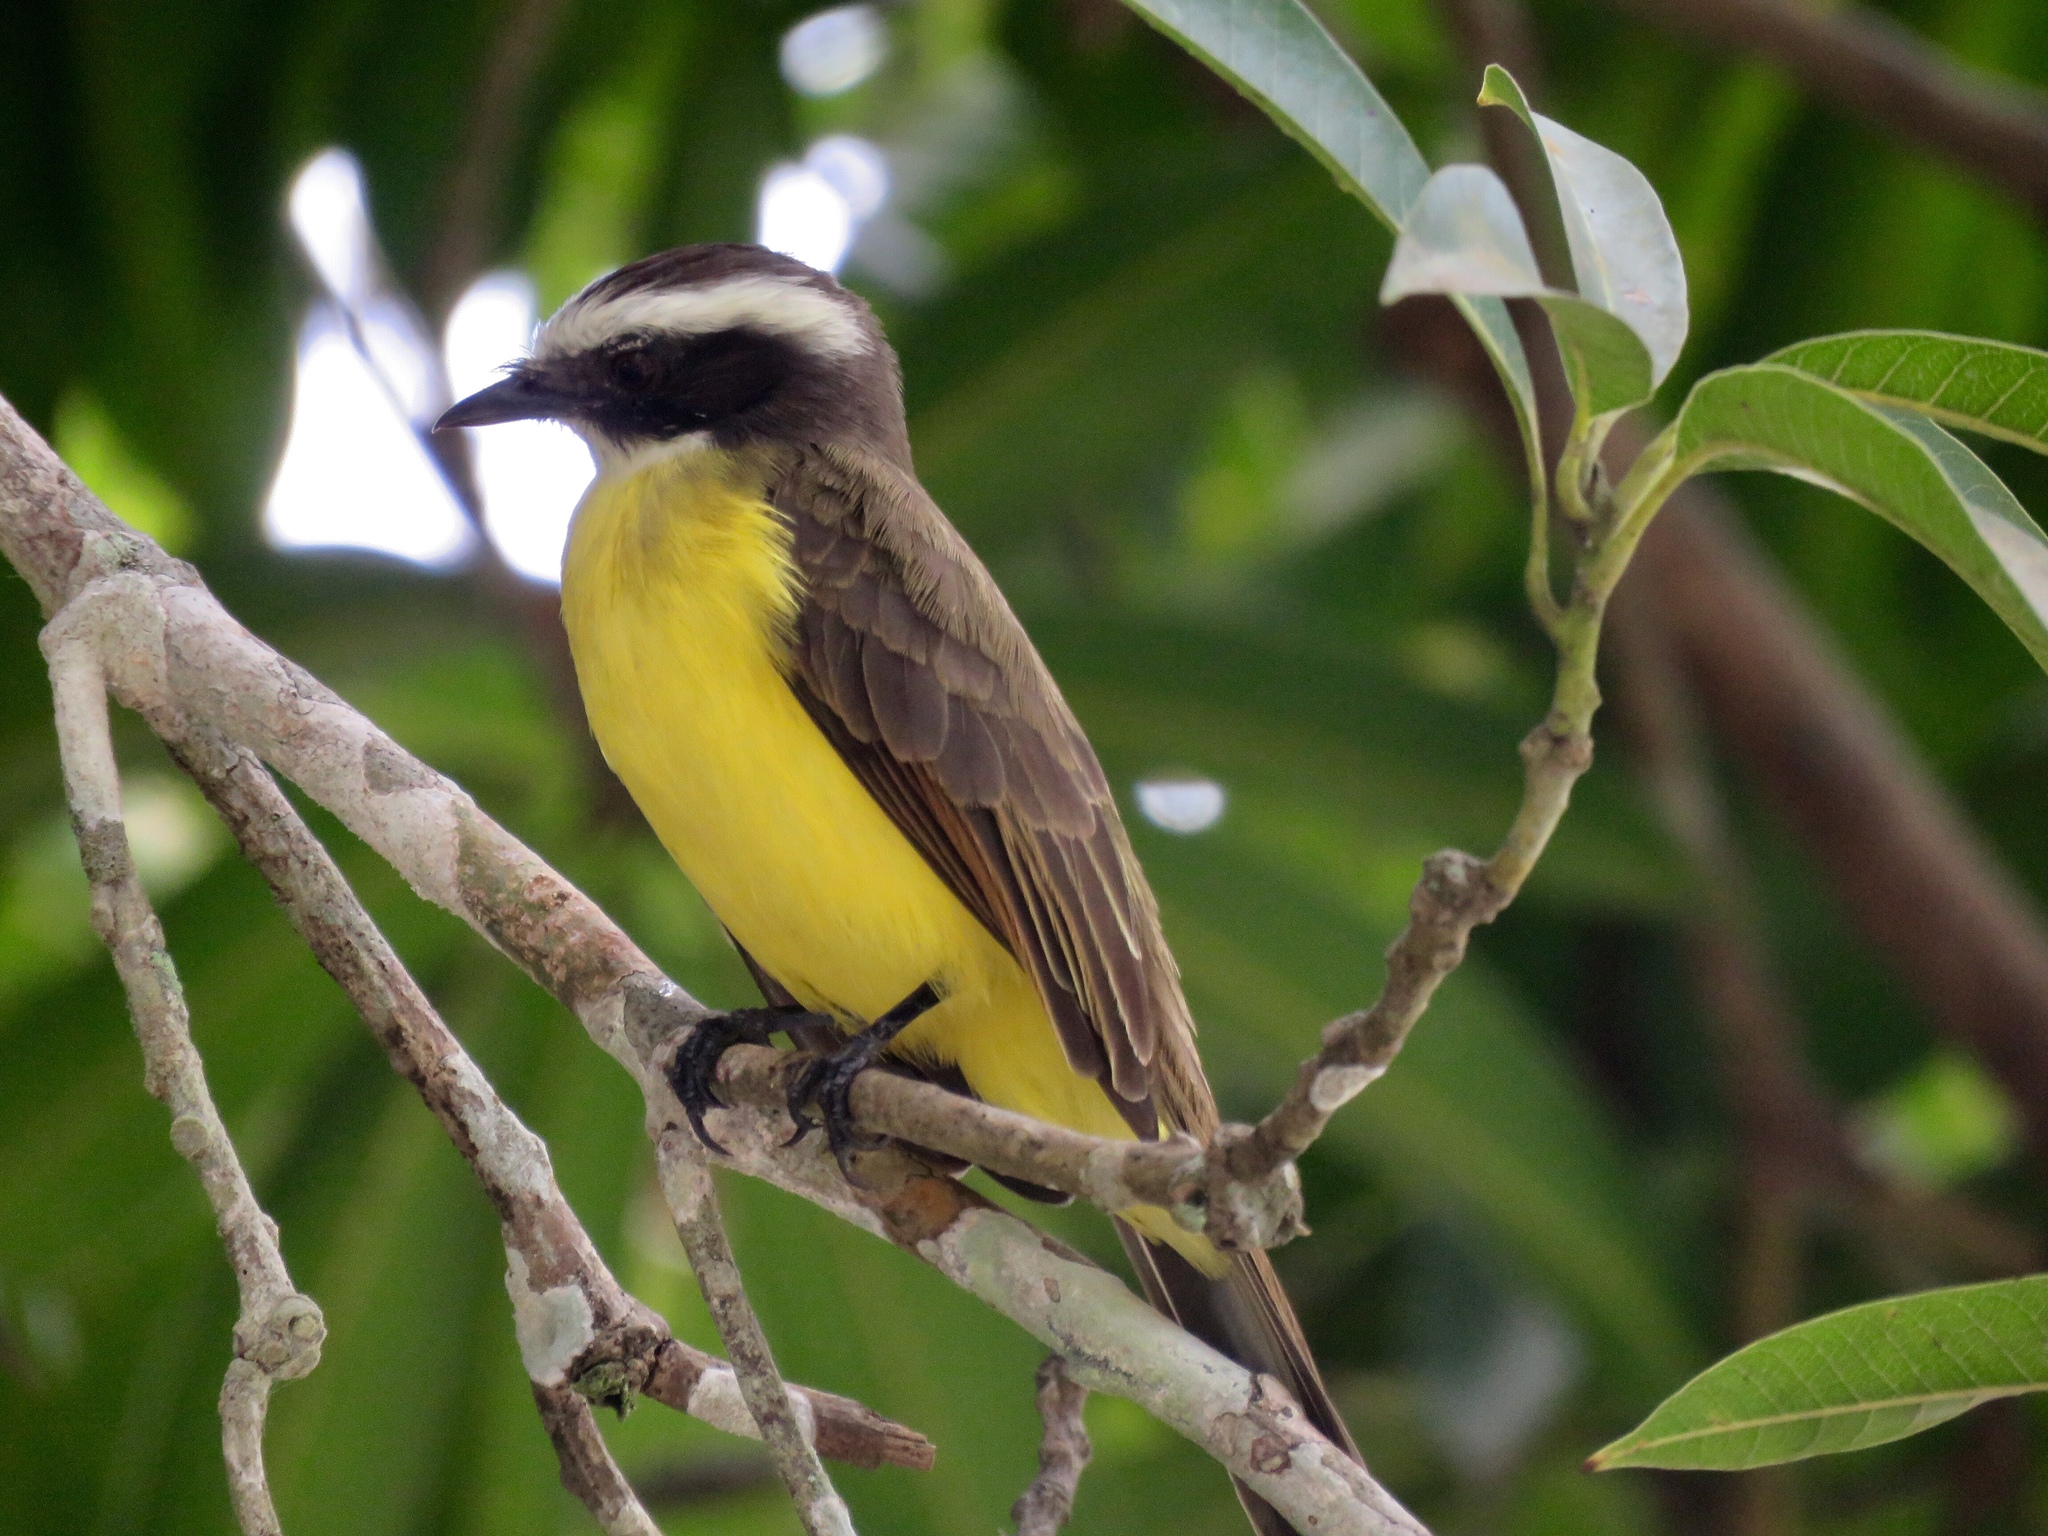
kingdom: Animalia
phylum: Chordata
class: Aves
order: Passeriformes
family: Tyrannidae
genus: Myiozetetes
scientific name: Myiozetetes similis
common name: Social flycatcher
